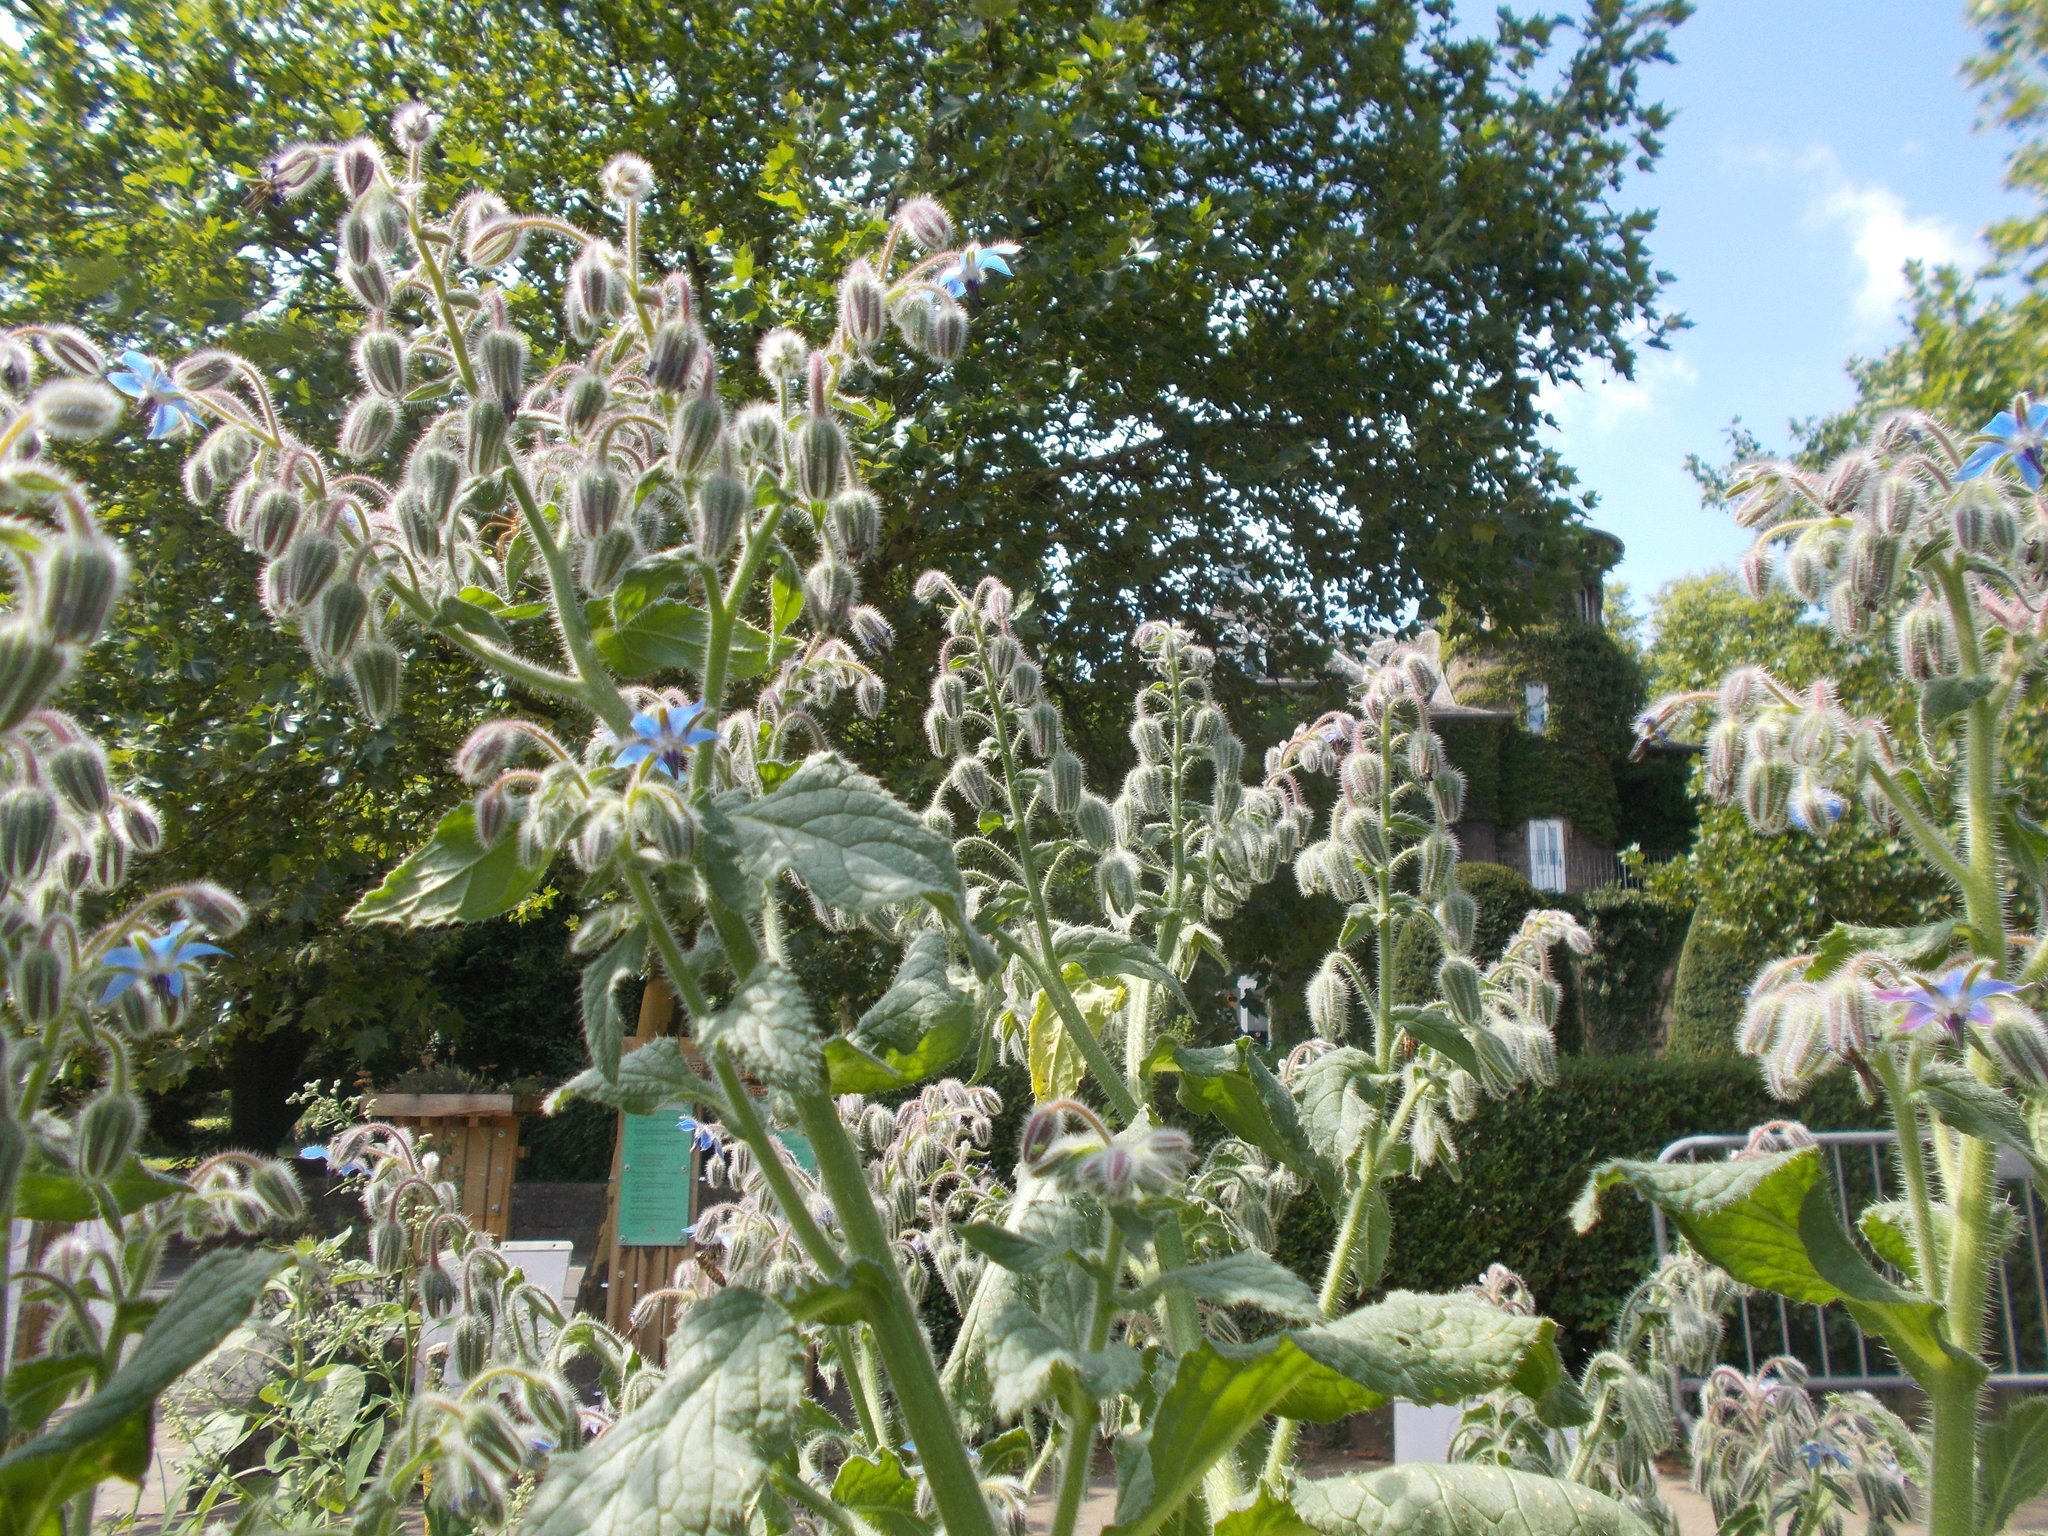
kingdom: Plantae
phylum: Tracheophyta
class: Magnoliopsida
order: Boraginales
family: Boraginaceae
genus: Borago
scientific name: Borago officinalis
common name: Borage
